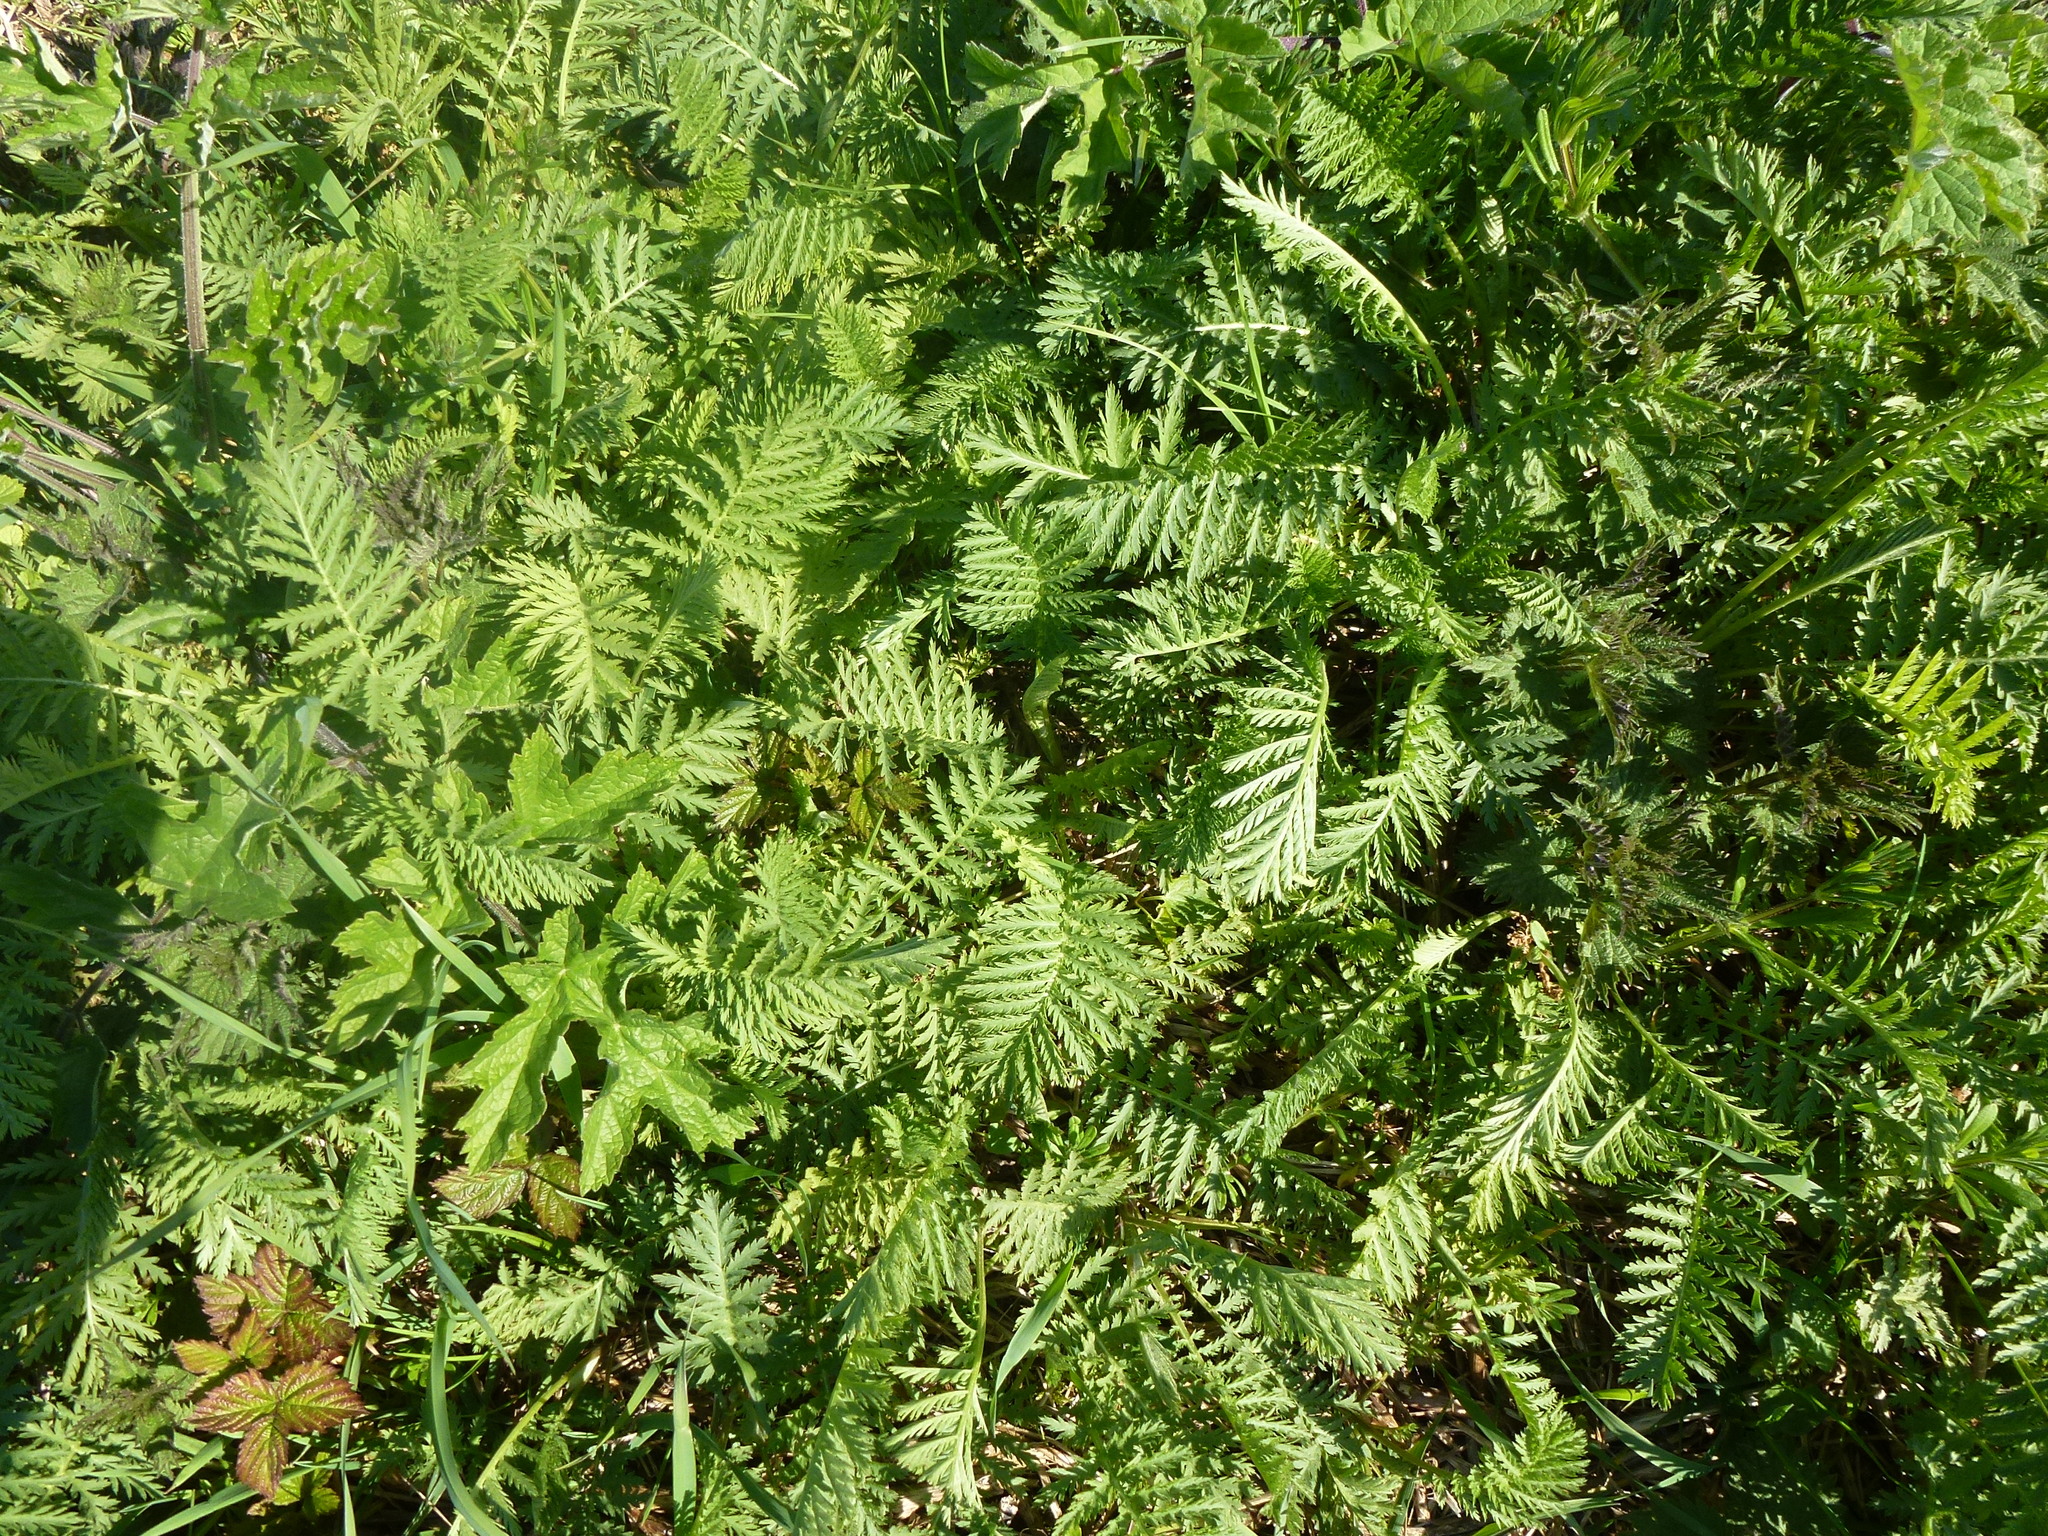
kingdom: Plantae
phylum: Tracheophyta
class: Magnoliopsida
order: Asterales
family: Asteraceae
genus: Tanacetum
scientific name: Tanacetum vulgare
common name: Common tansy
